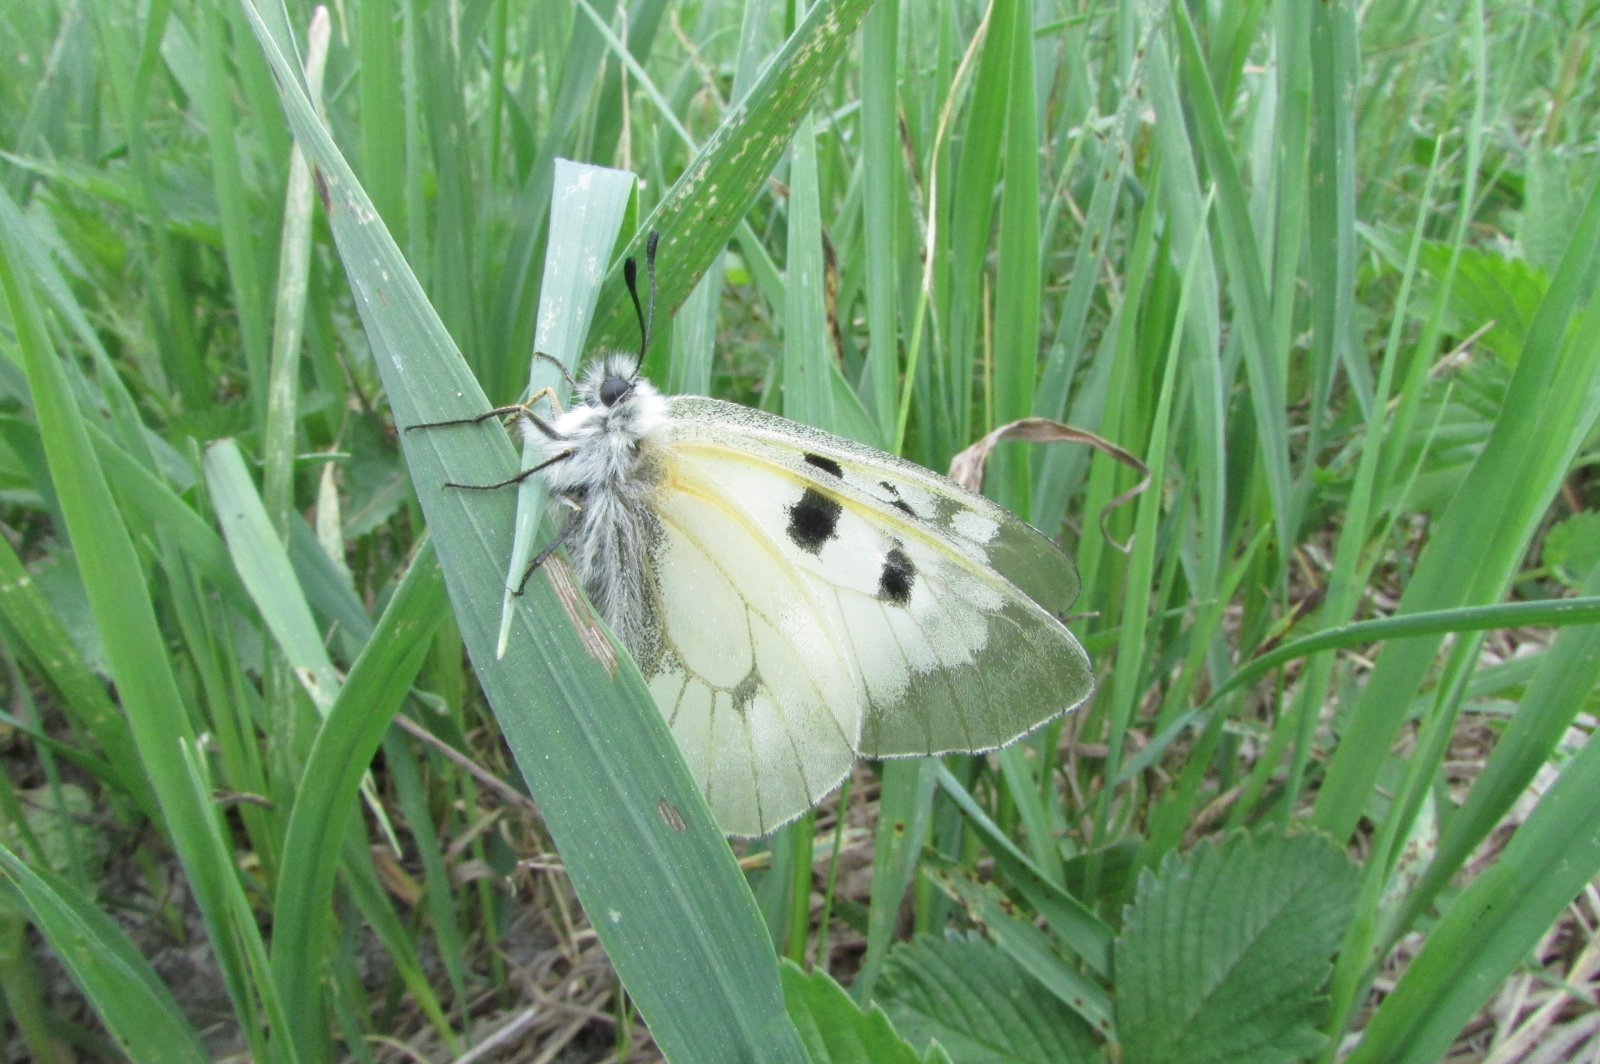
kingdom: Animalia
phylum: Arthropoda
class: Insecta
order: Lepidoptera
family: Papilionidae
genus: Parnassius
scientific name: Parnassius mnemosyne
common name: Clouded apollo
